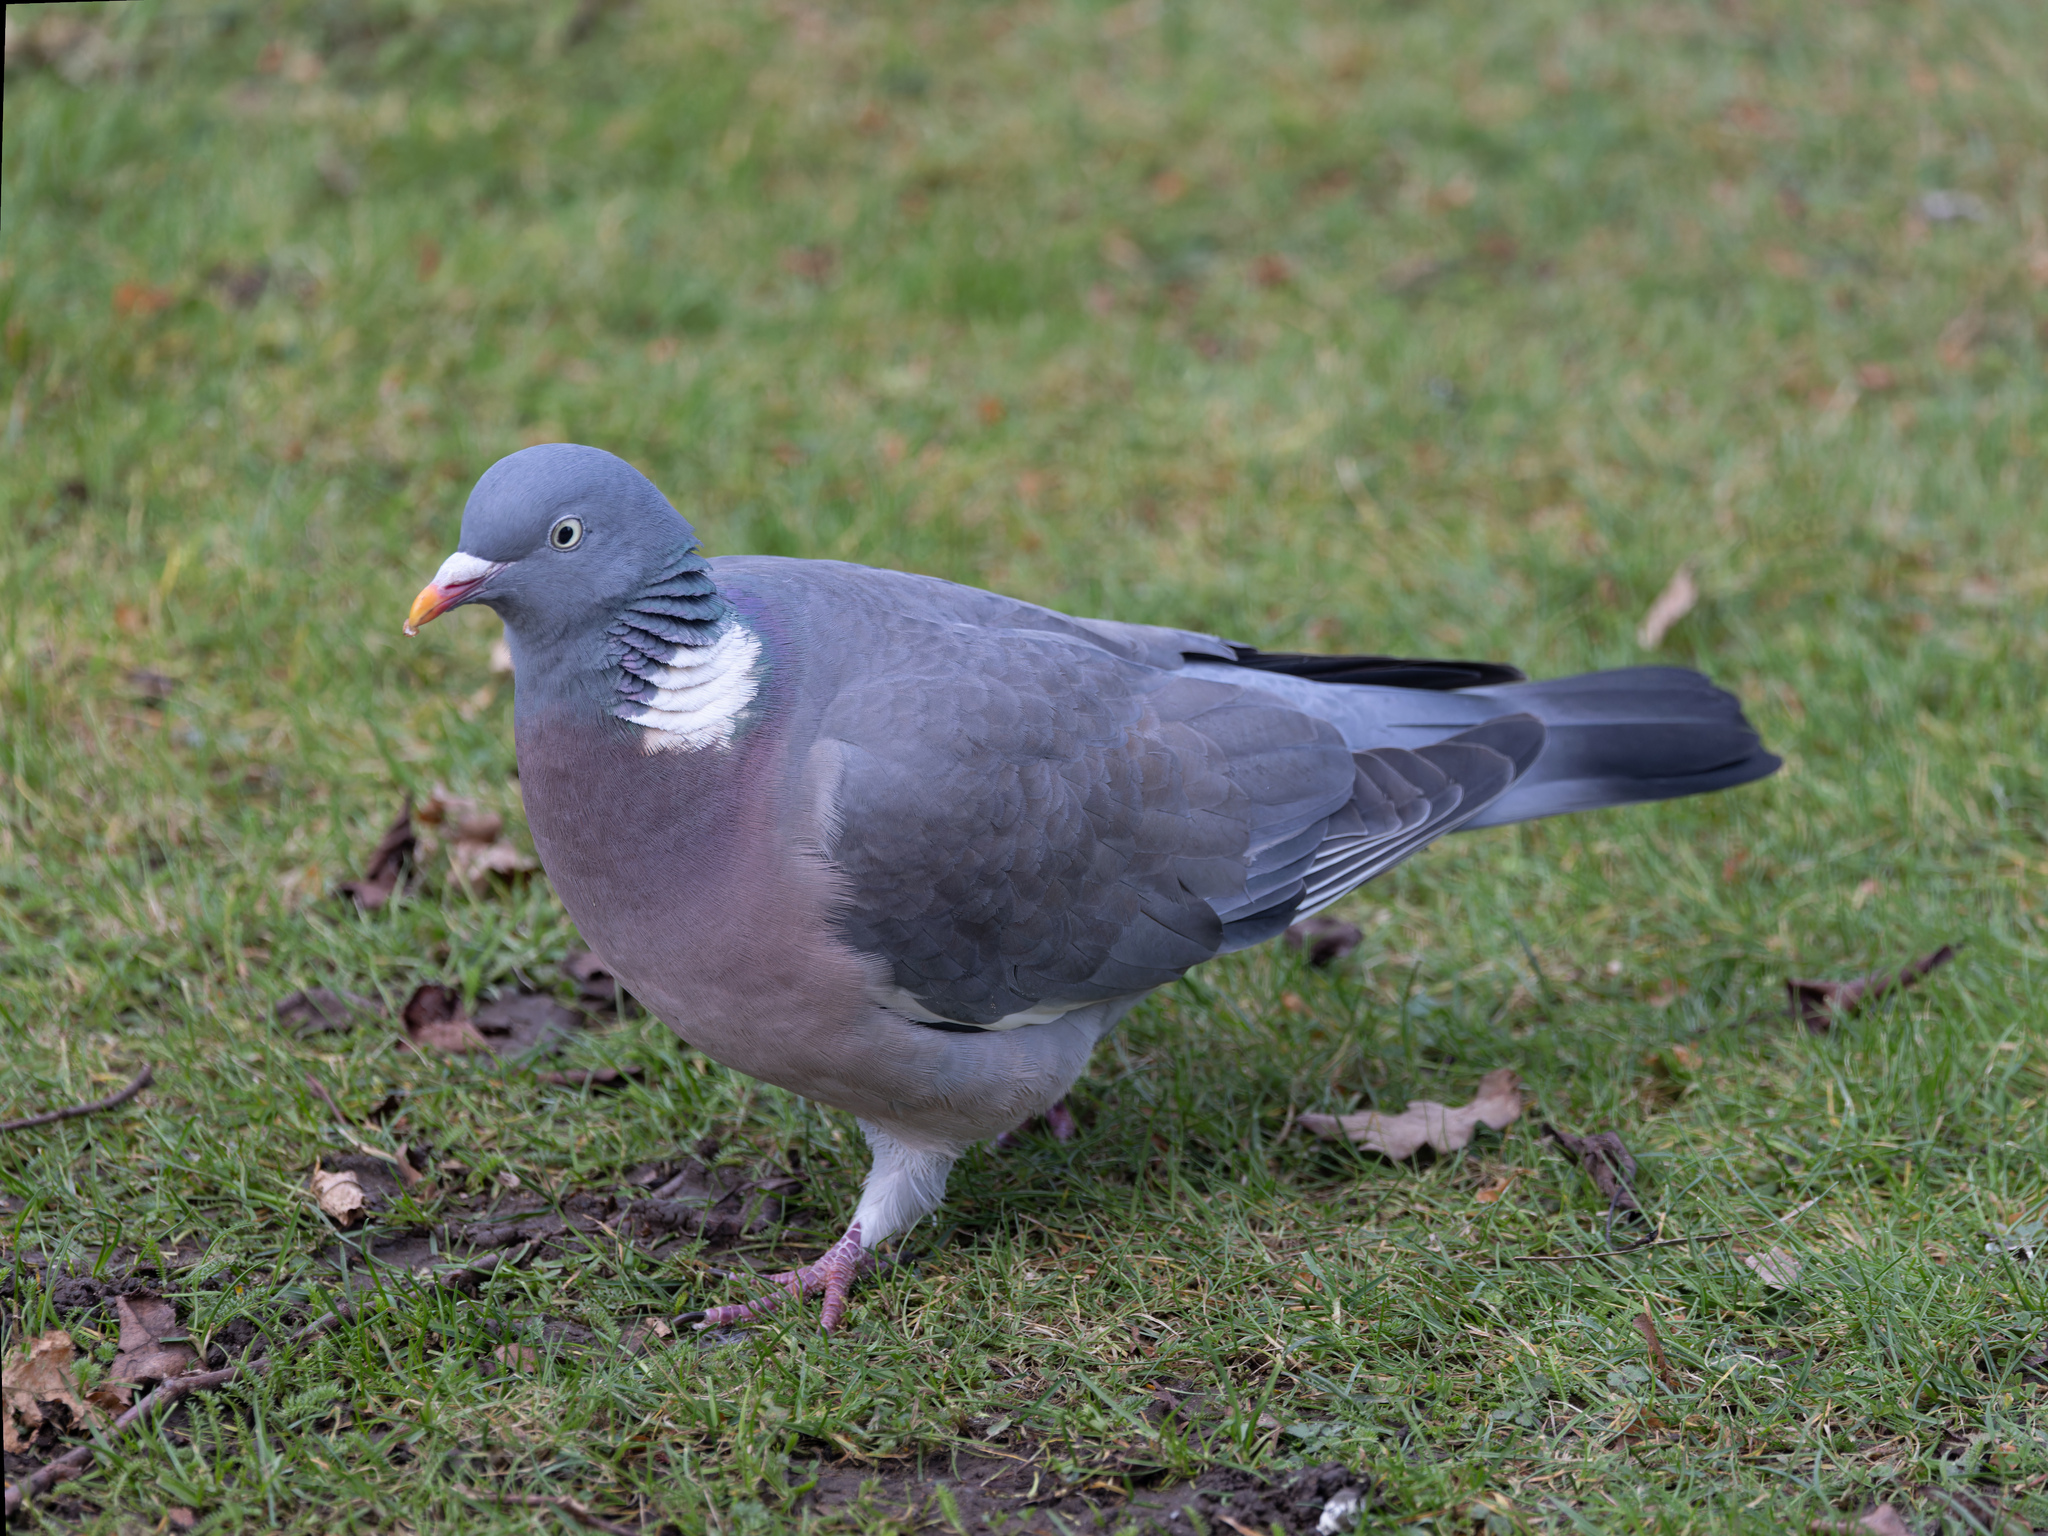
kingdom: Animalia
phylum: Chordata
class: Aves
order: Columbiformes
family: Columbidae
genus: Columba
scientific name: Columba palumbus
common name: Common wood pigeon
